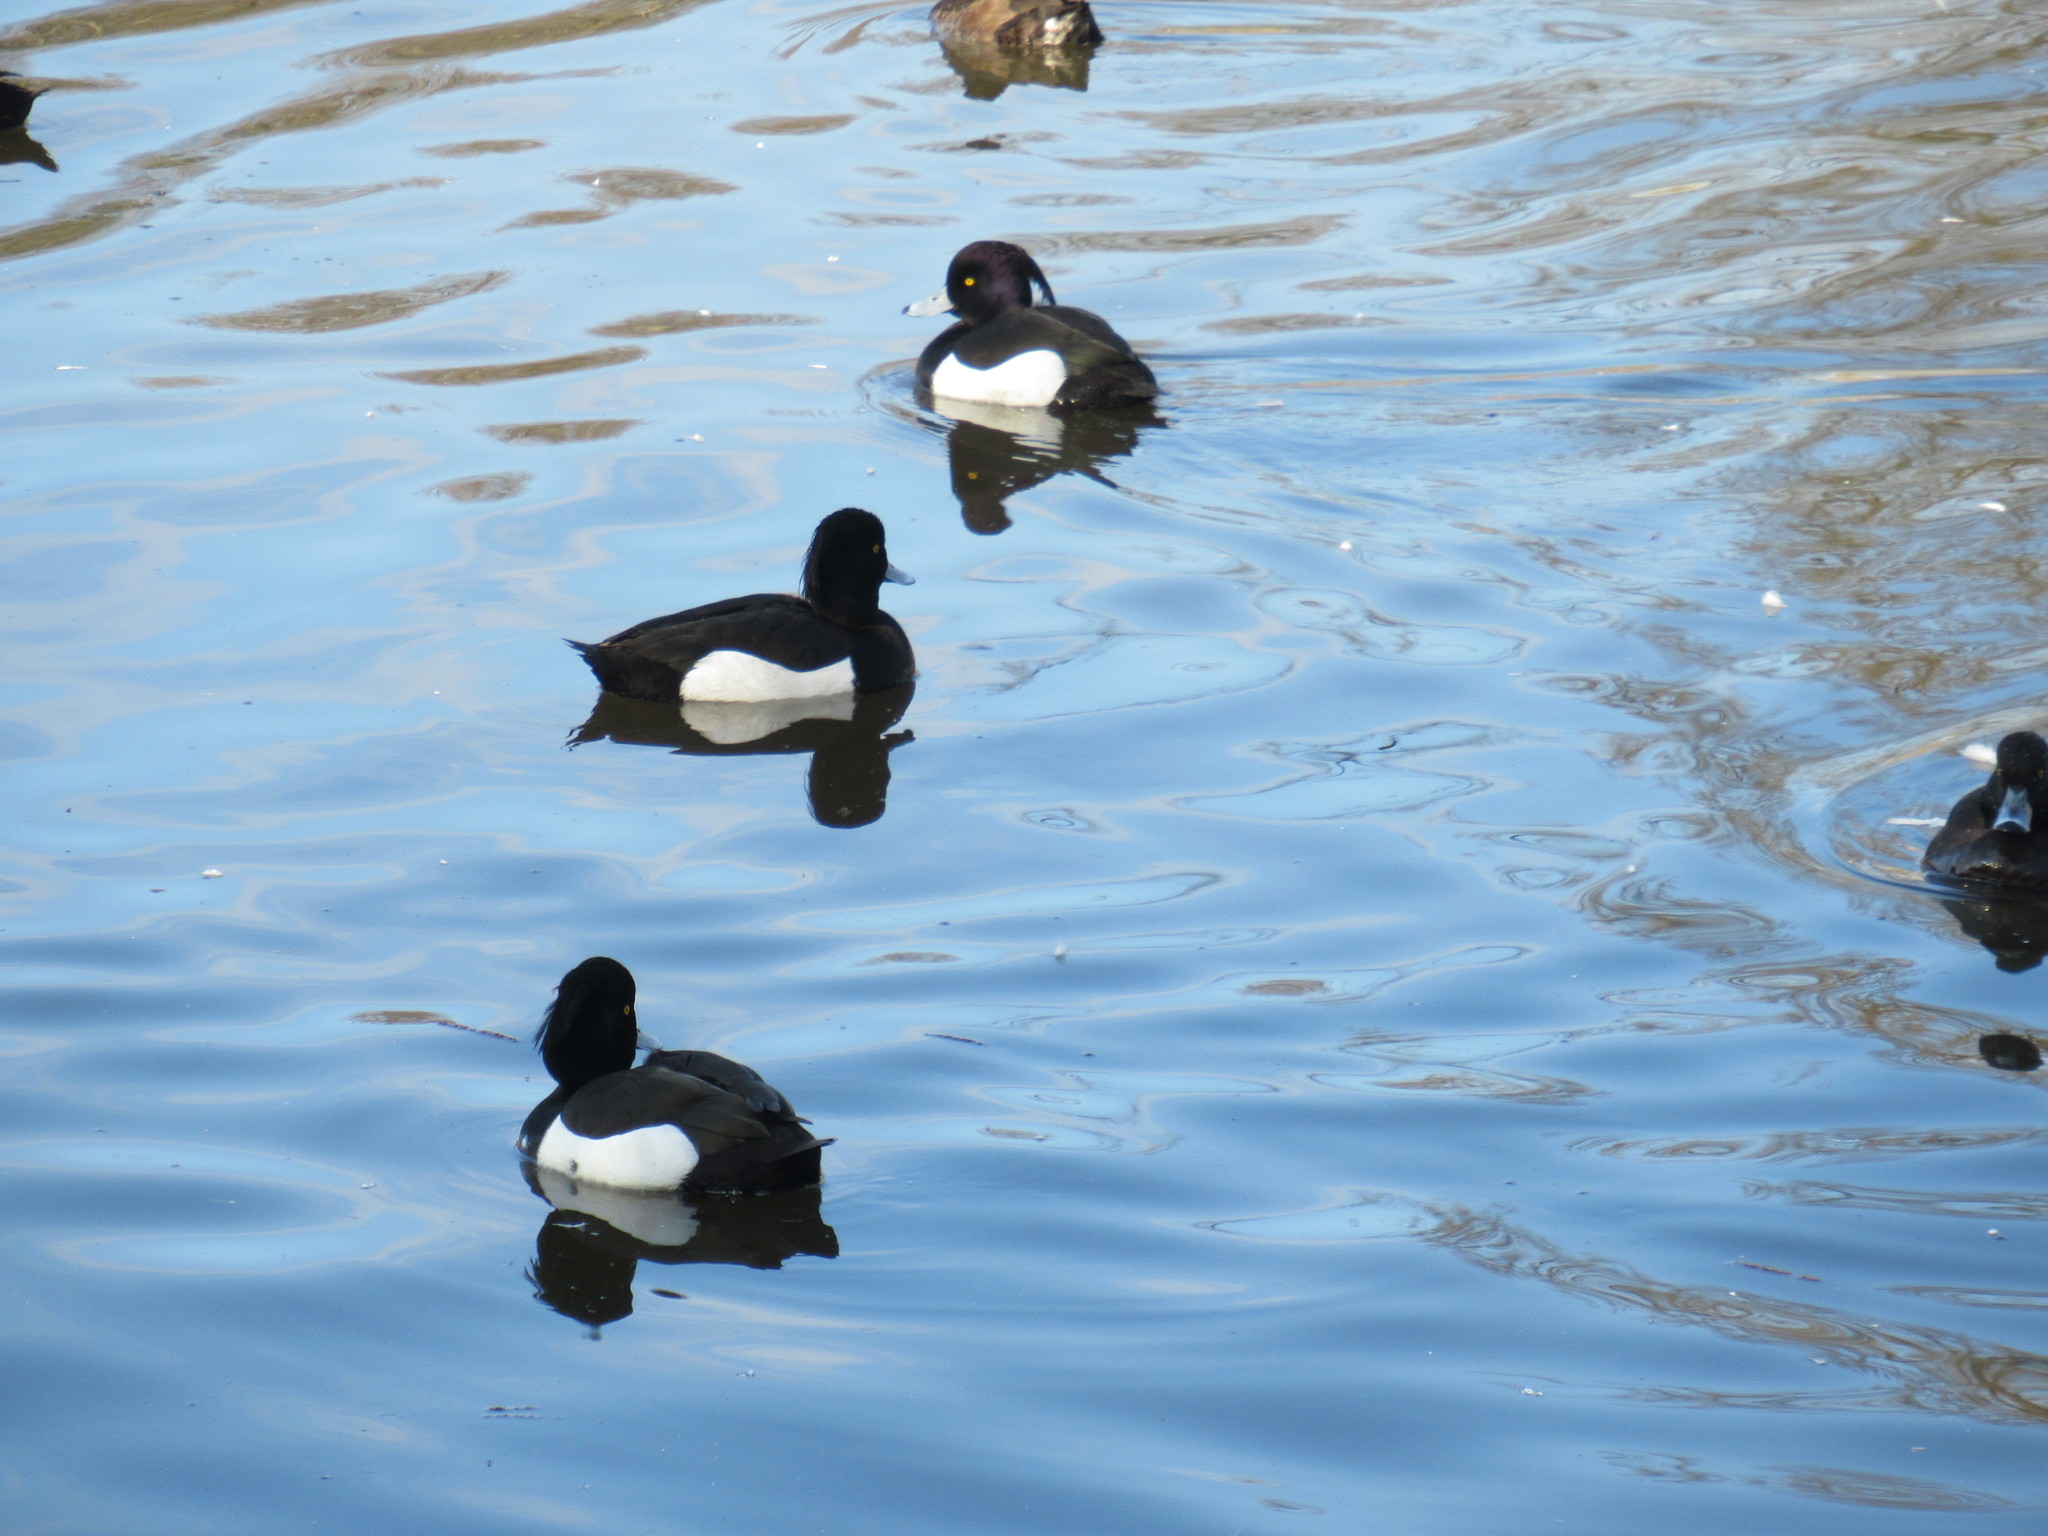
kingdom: Animalia
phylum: Chordata
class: Aves
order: Anseriformes
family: Anatidae
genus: Aythya
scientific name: Aythya fuligula
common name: Tufted duck
